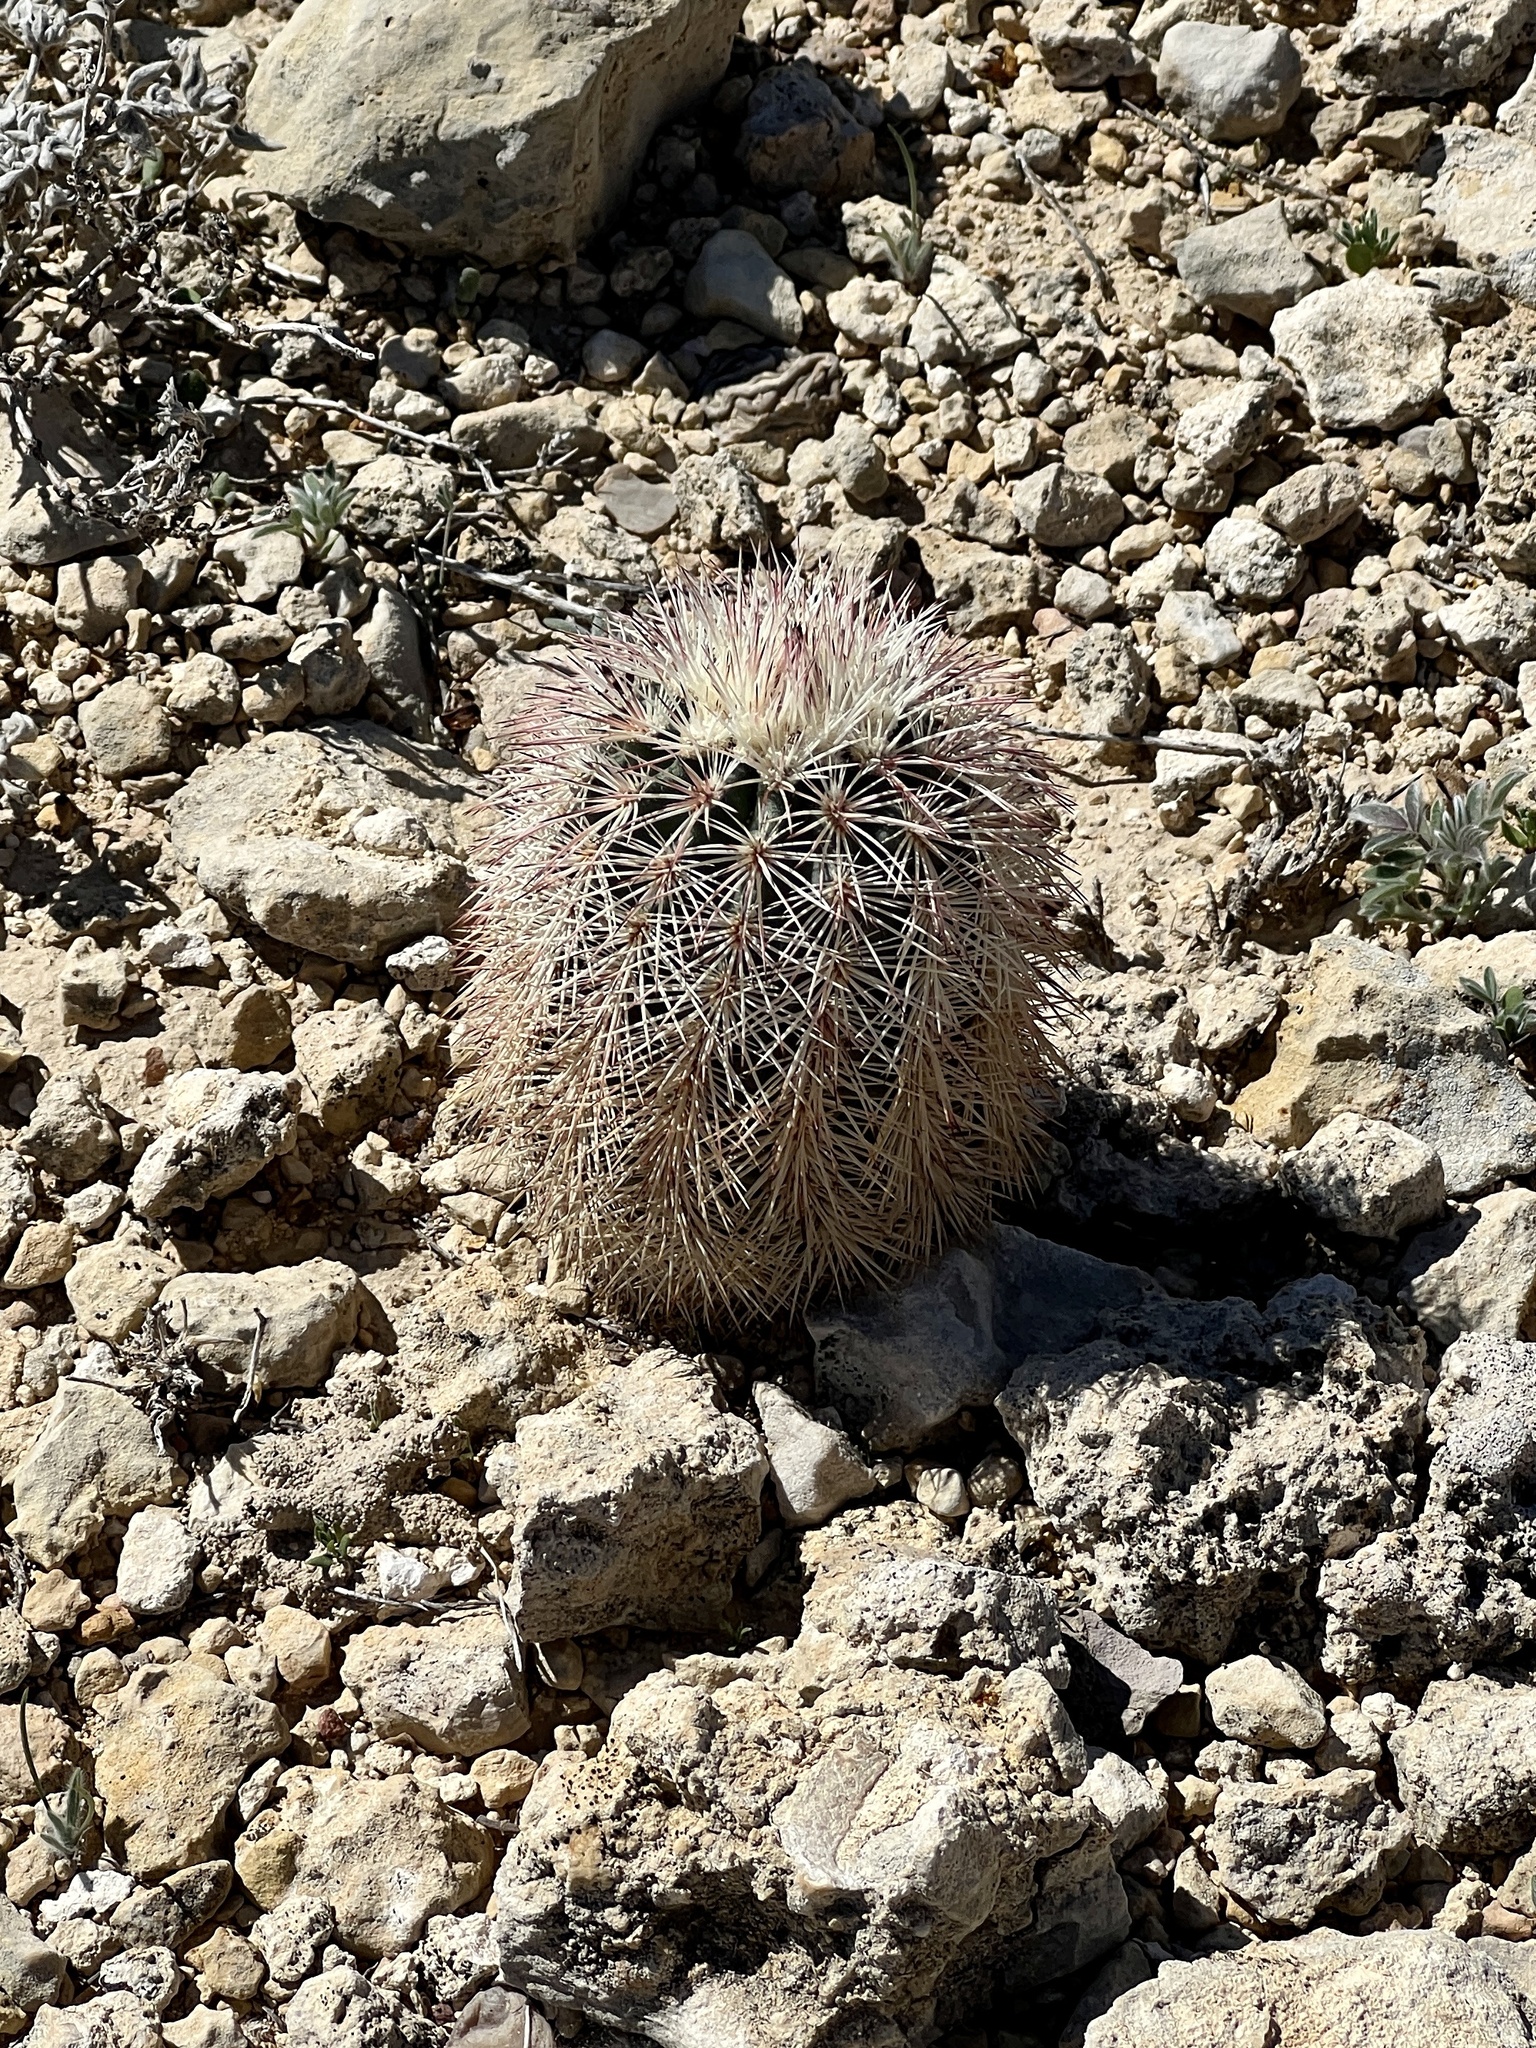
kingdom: Plantae
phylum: Tracheophyta
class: Magnoliopsida
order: Caryophyllales
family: Cactaceae
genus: Echinocereus
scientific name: Echinocereus dasyacanthus
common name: Spiny hedgehog cactus
